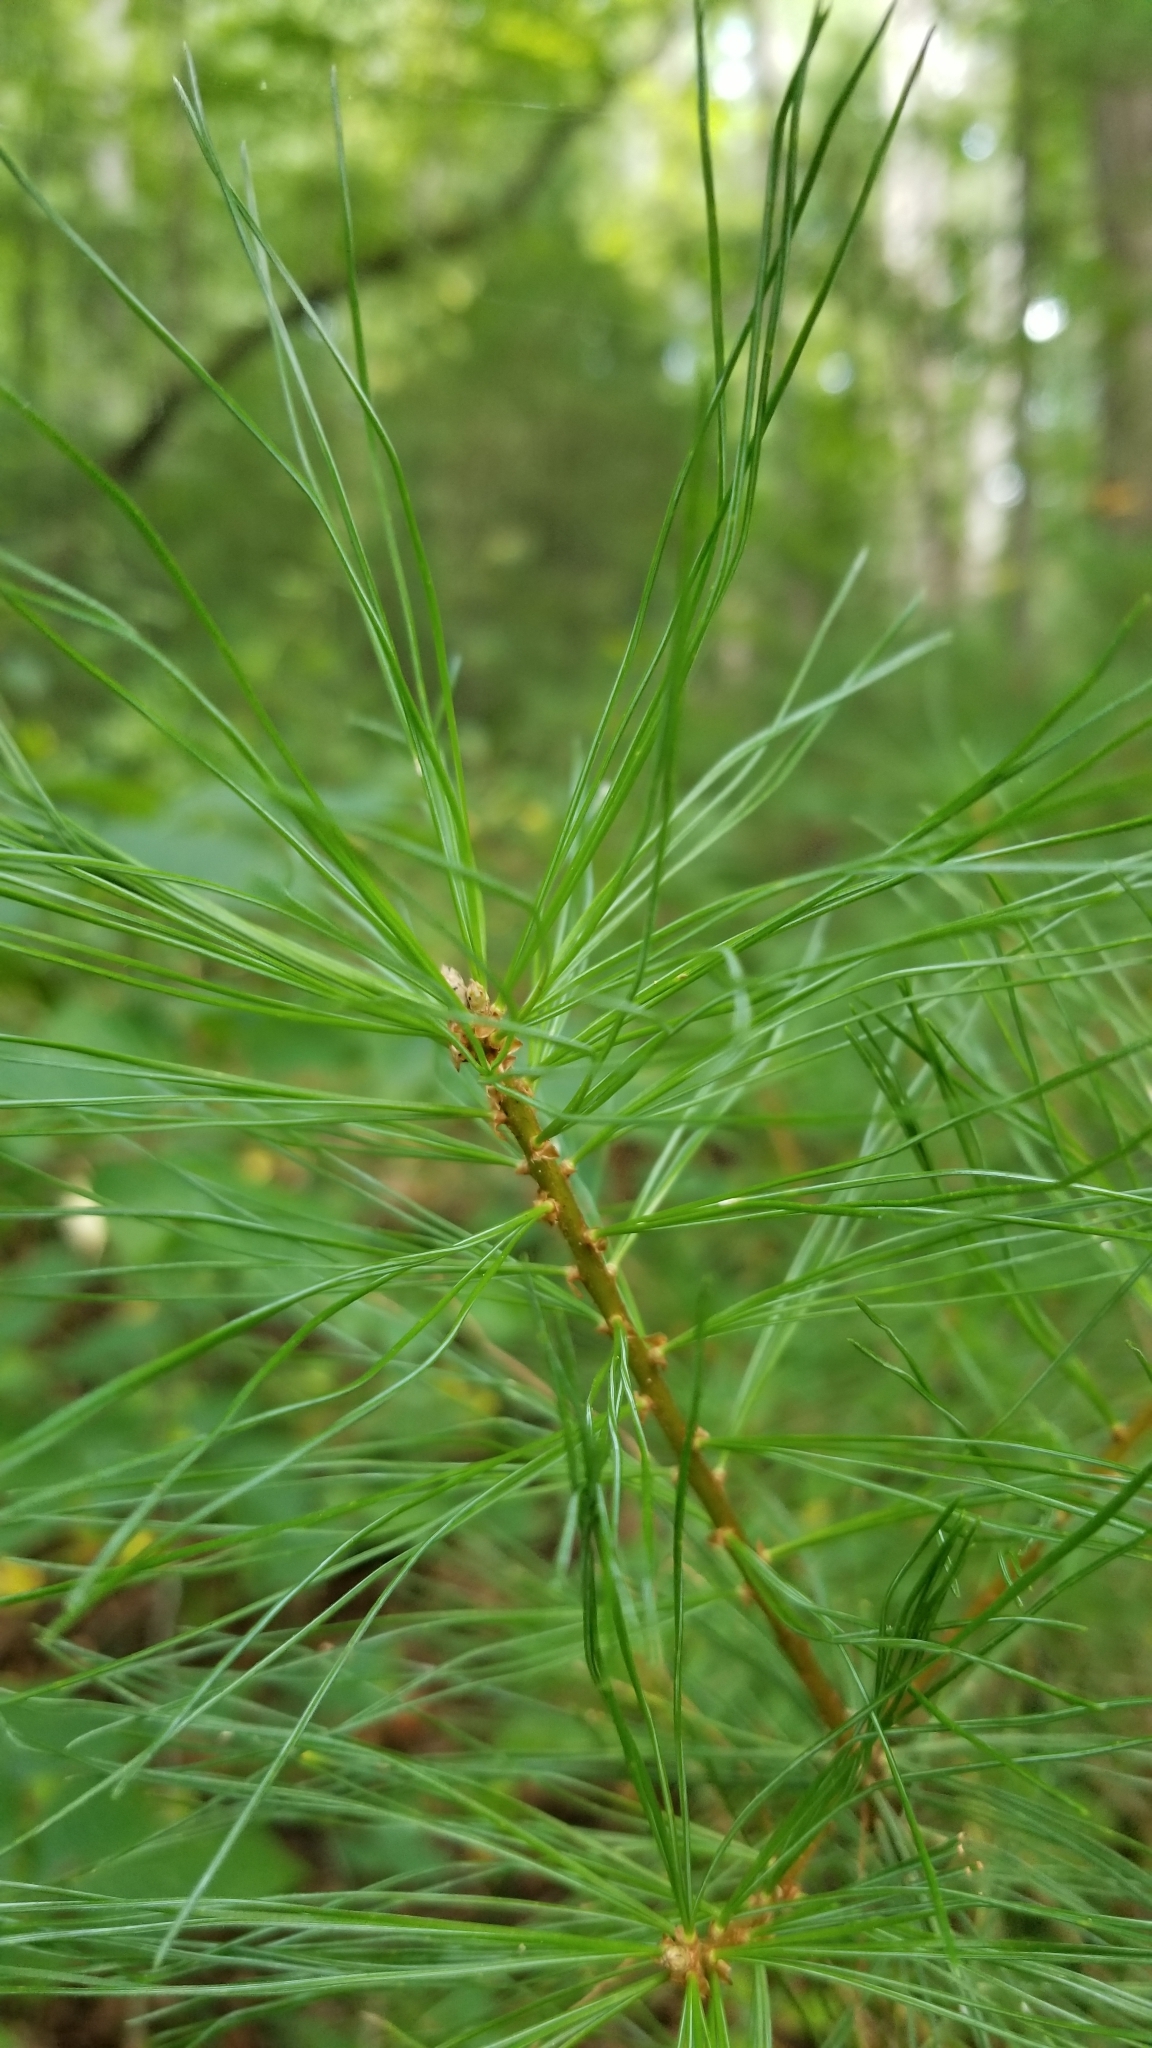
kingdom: Plantae
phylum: Tracheophyta
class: Pinopsida
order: Pinales
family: Pinaceae
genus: Pinus
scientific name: Pinus strobus
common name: Weymouth pine
